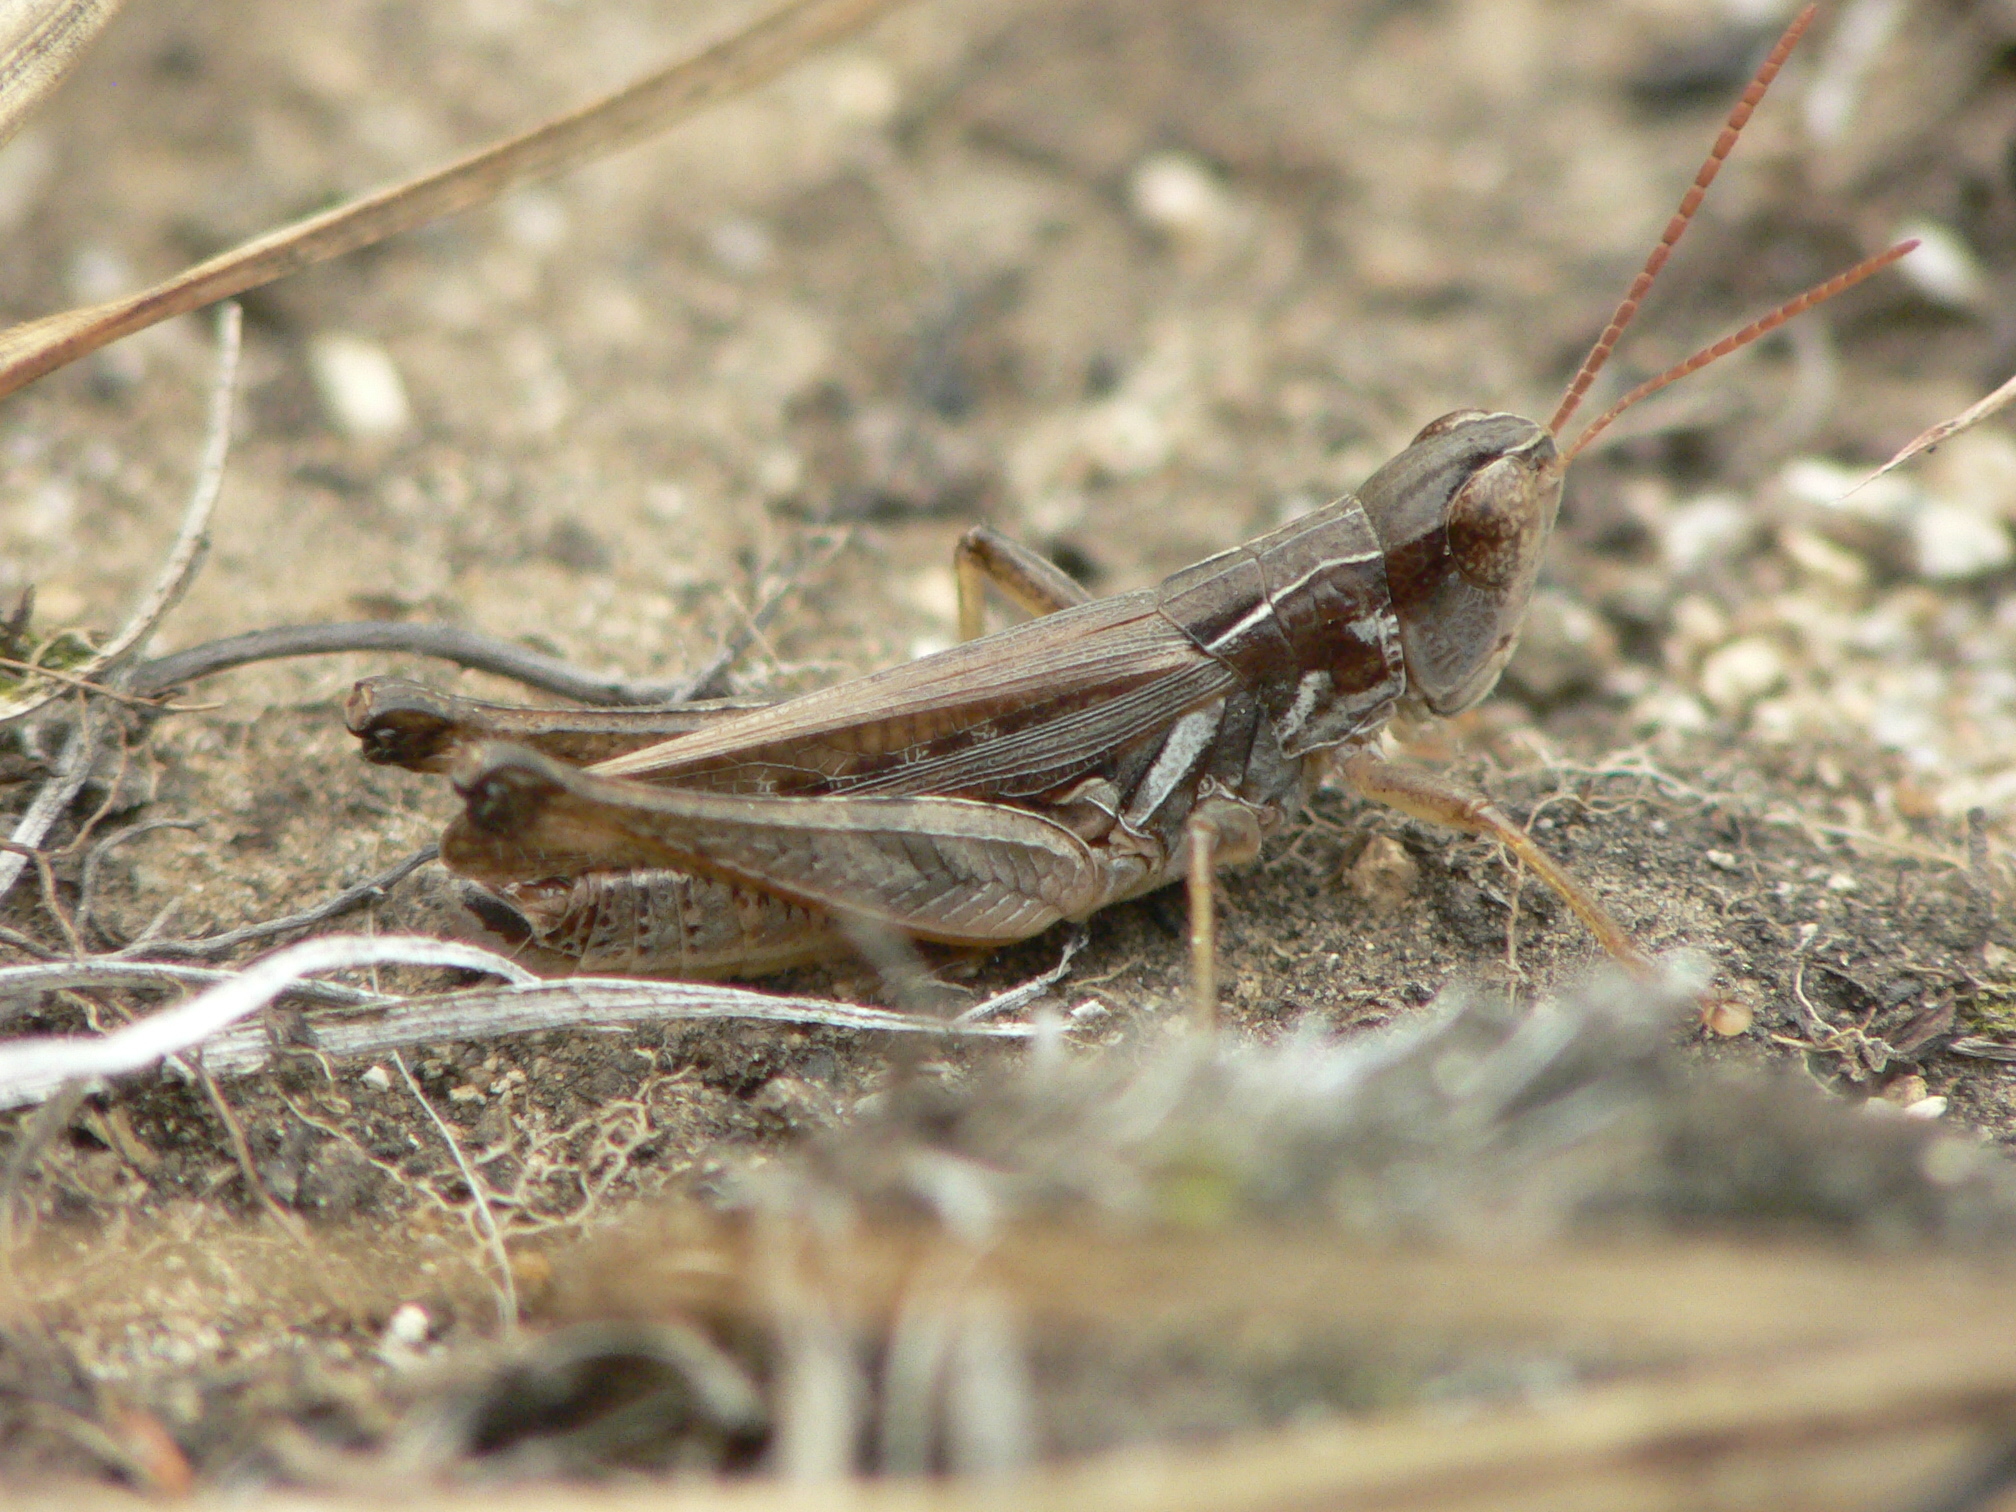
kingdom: Animalia
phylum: Arthropoda
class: Insecta
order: Orthoptera
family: Acrididae
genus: Orphulella
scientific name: Orphulella speciosa
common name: Pasture grasshopper
